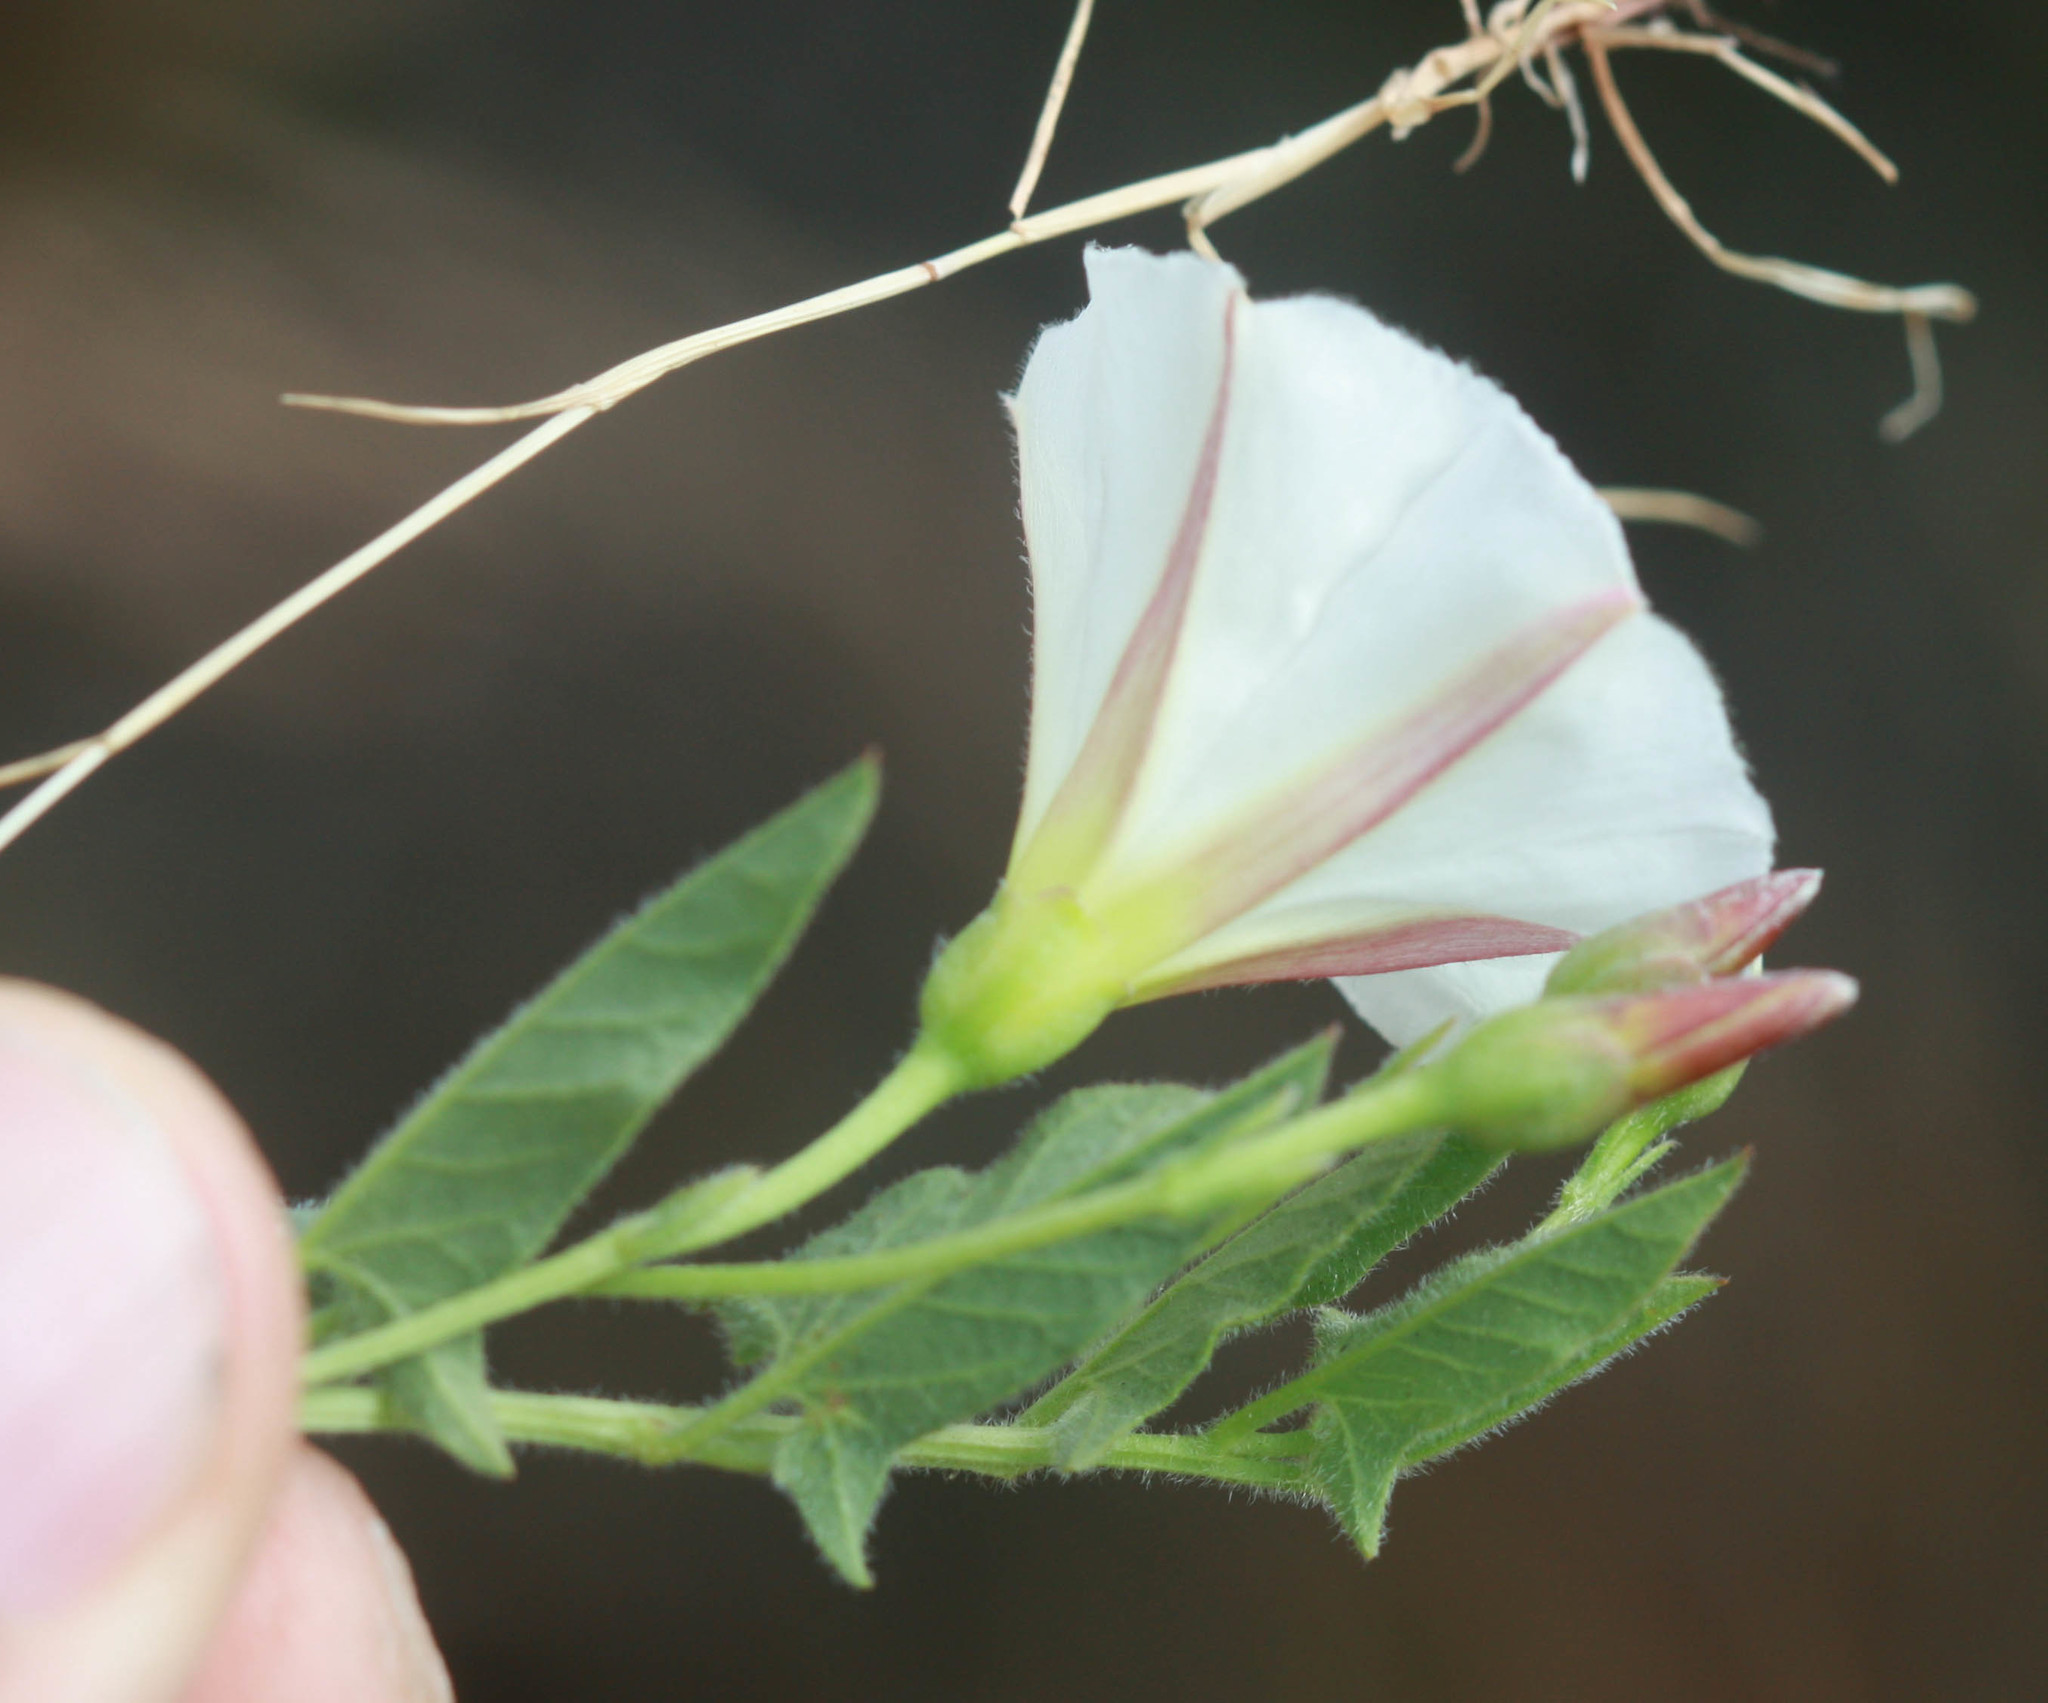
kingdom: Plantae
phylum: Tracheophyta
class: Magnoliopsida
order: Solanales
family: Convolvulaceae
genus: Convolvulus
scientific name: Convolvulus arvensis
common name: Field bindweed
